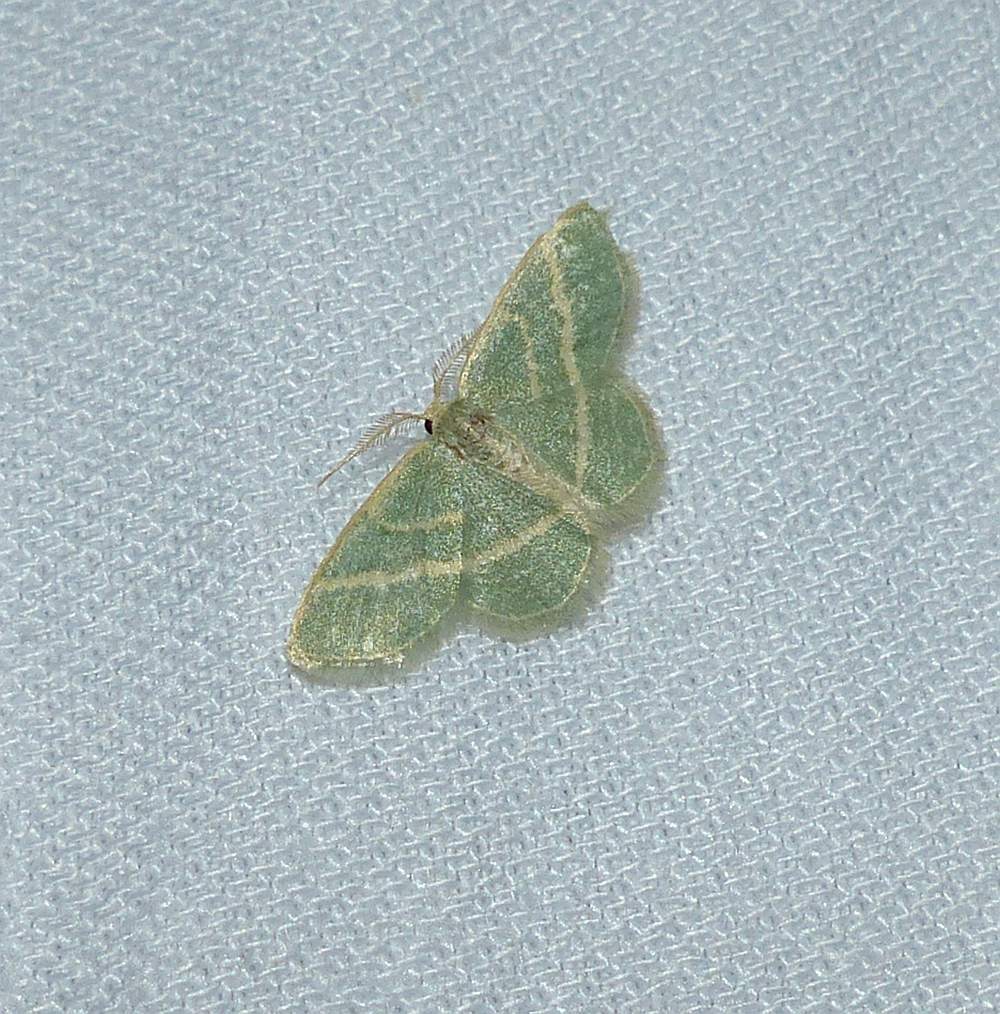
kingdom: Animalia
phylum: Arthropoda
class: Insecta
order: Lepidoptera
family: Geometridae
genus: Chlorochlamys
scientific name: Chlorochlamys chloroleucaria
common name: Blackberry looper
